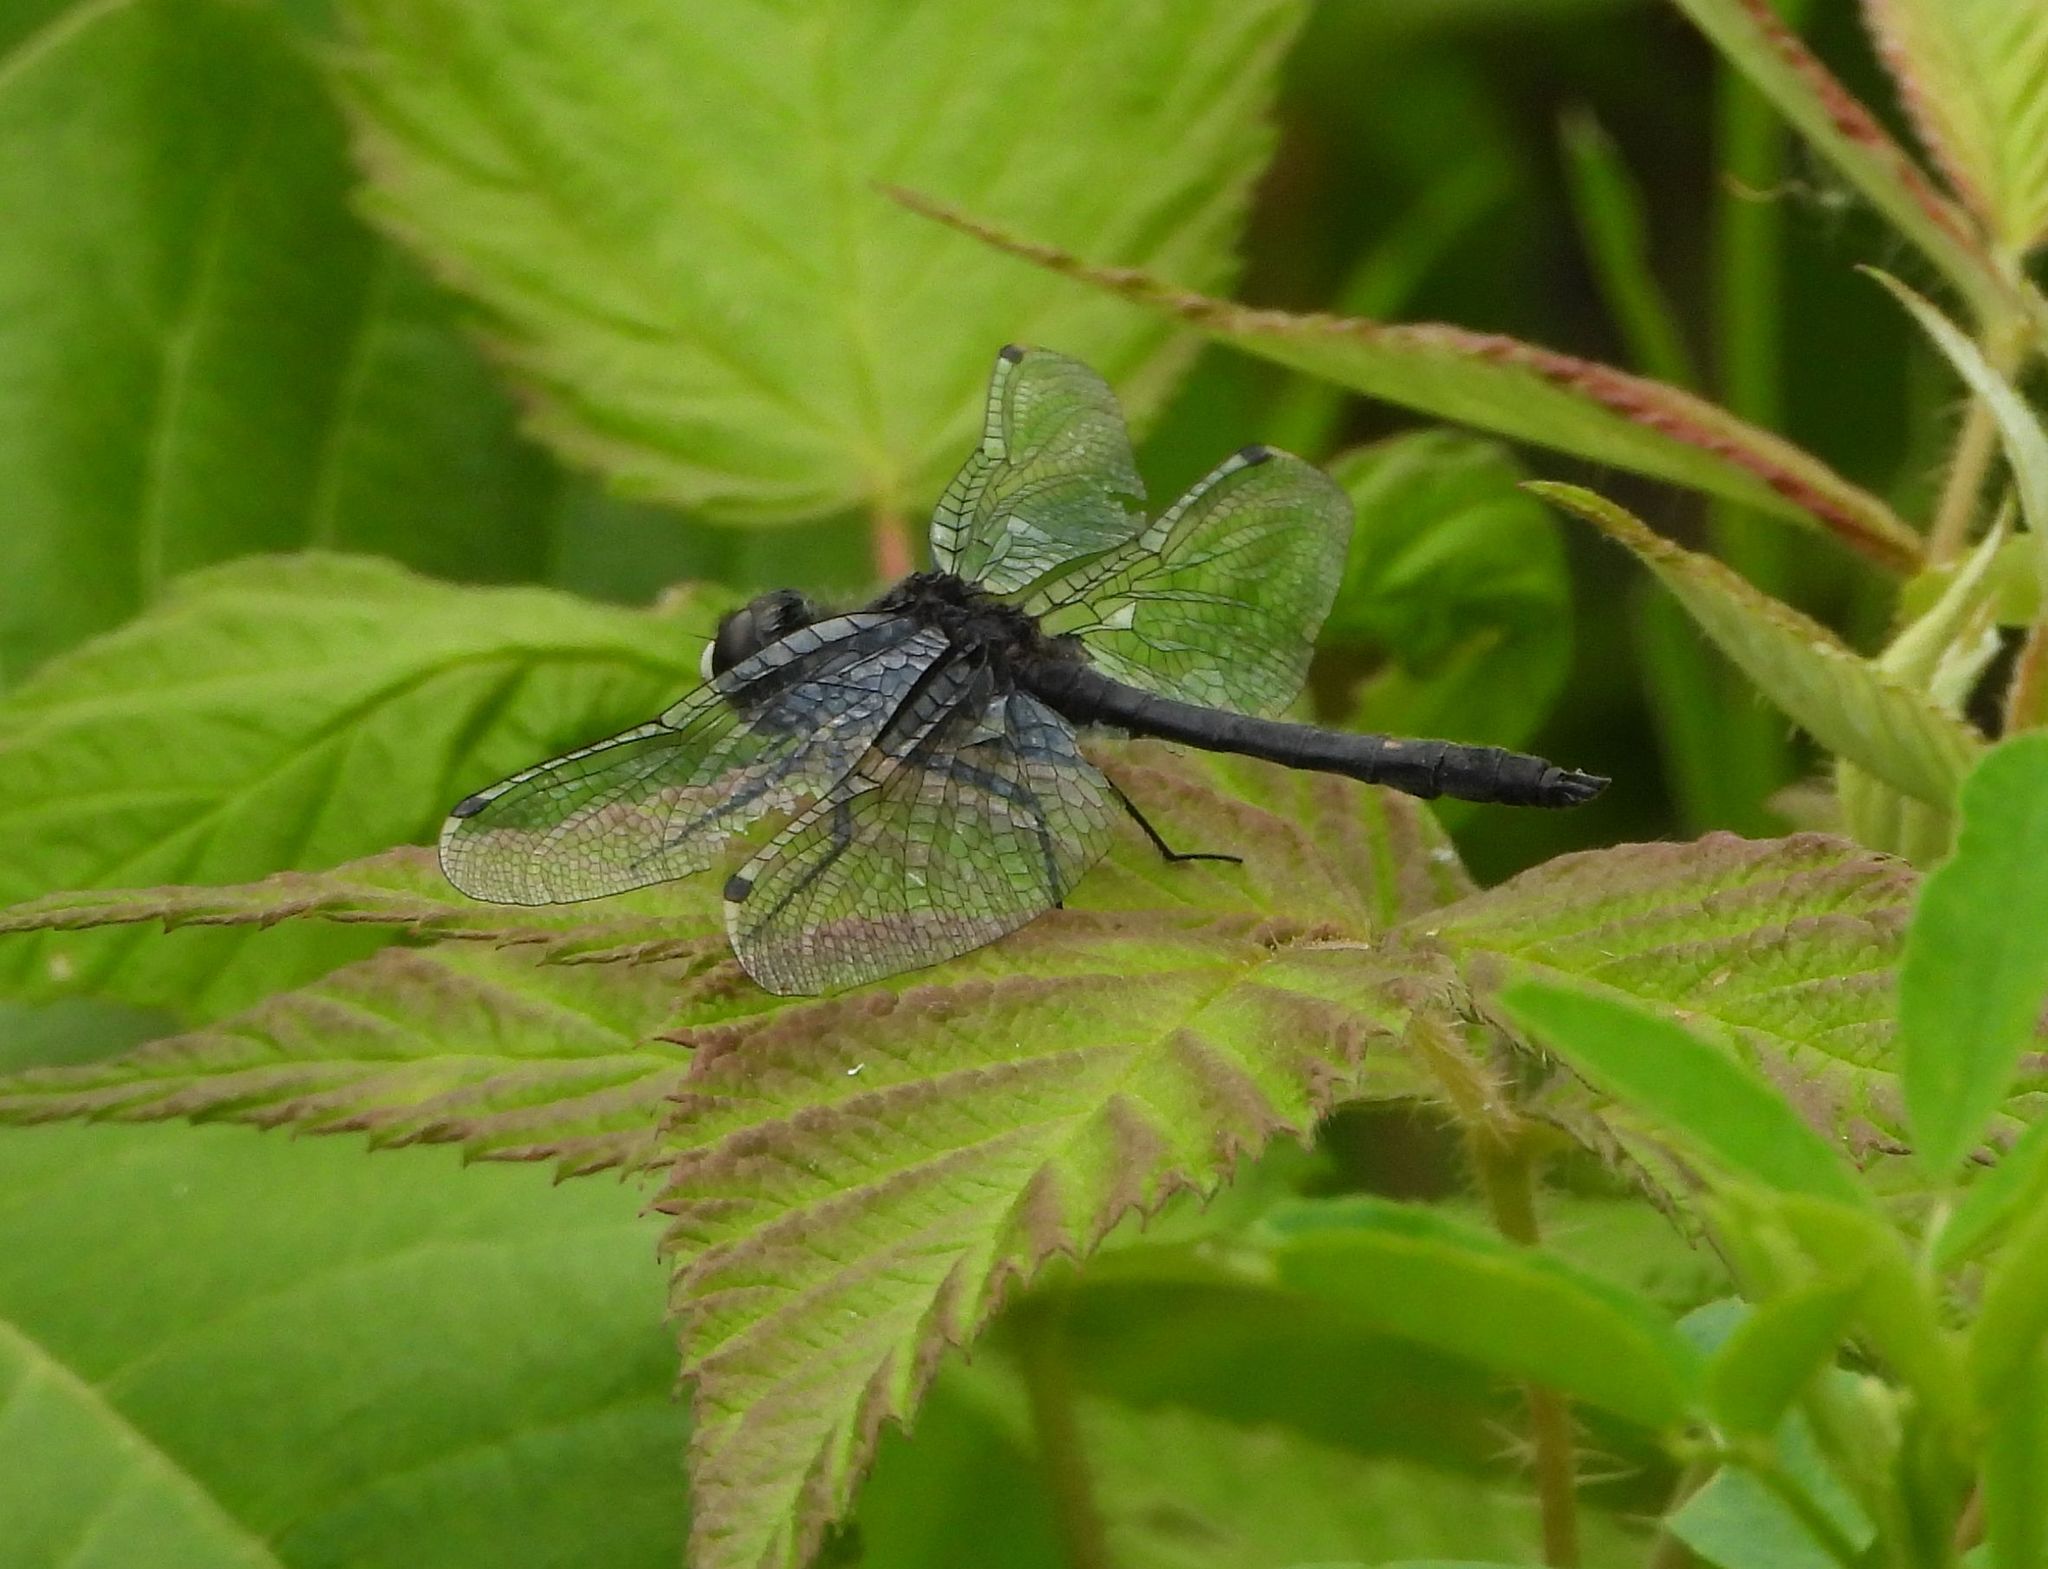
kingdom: Animalia
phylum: Arthropoda
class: Insecta
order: Odonata
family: Libellulidae
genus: Leucorrhinia
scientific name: Leucorrhinia intacta
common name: Dot-tailed whiteface
